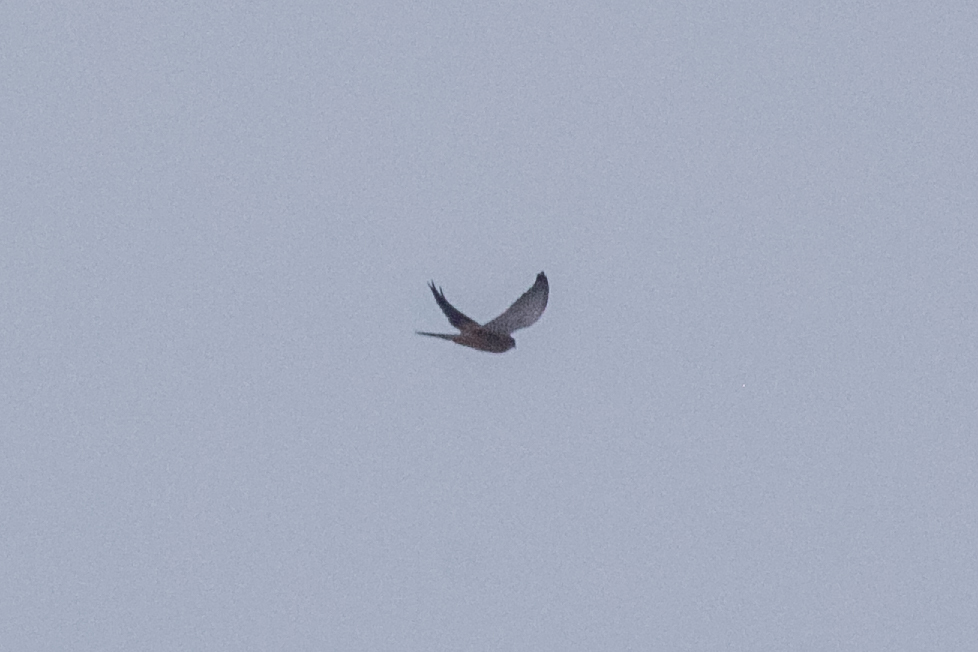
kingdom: Animalia
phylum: Chordata
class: Aves
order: Falconiformes
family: Falconidae
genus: Falco
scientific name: Falco tinnunculus
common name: Common kestrel
